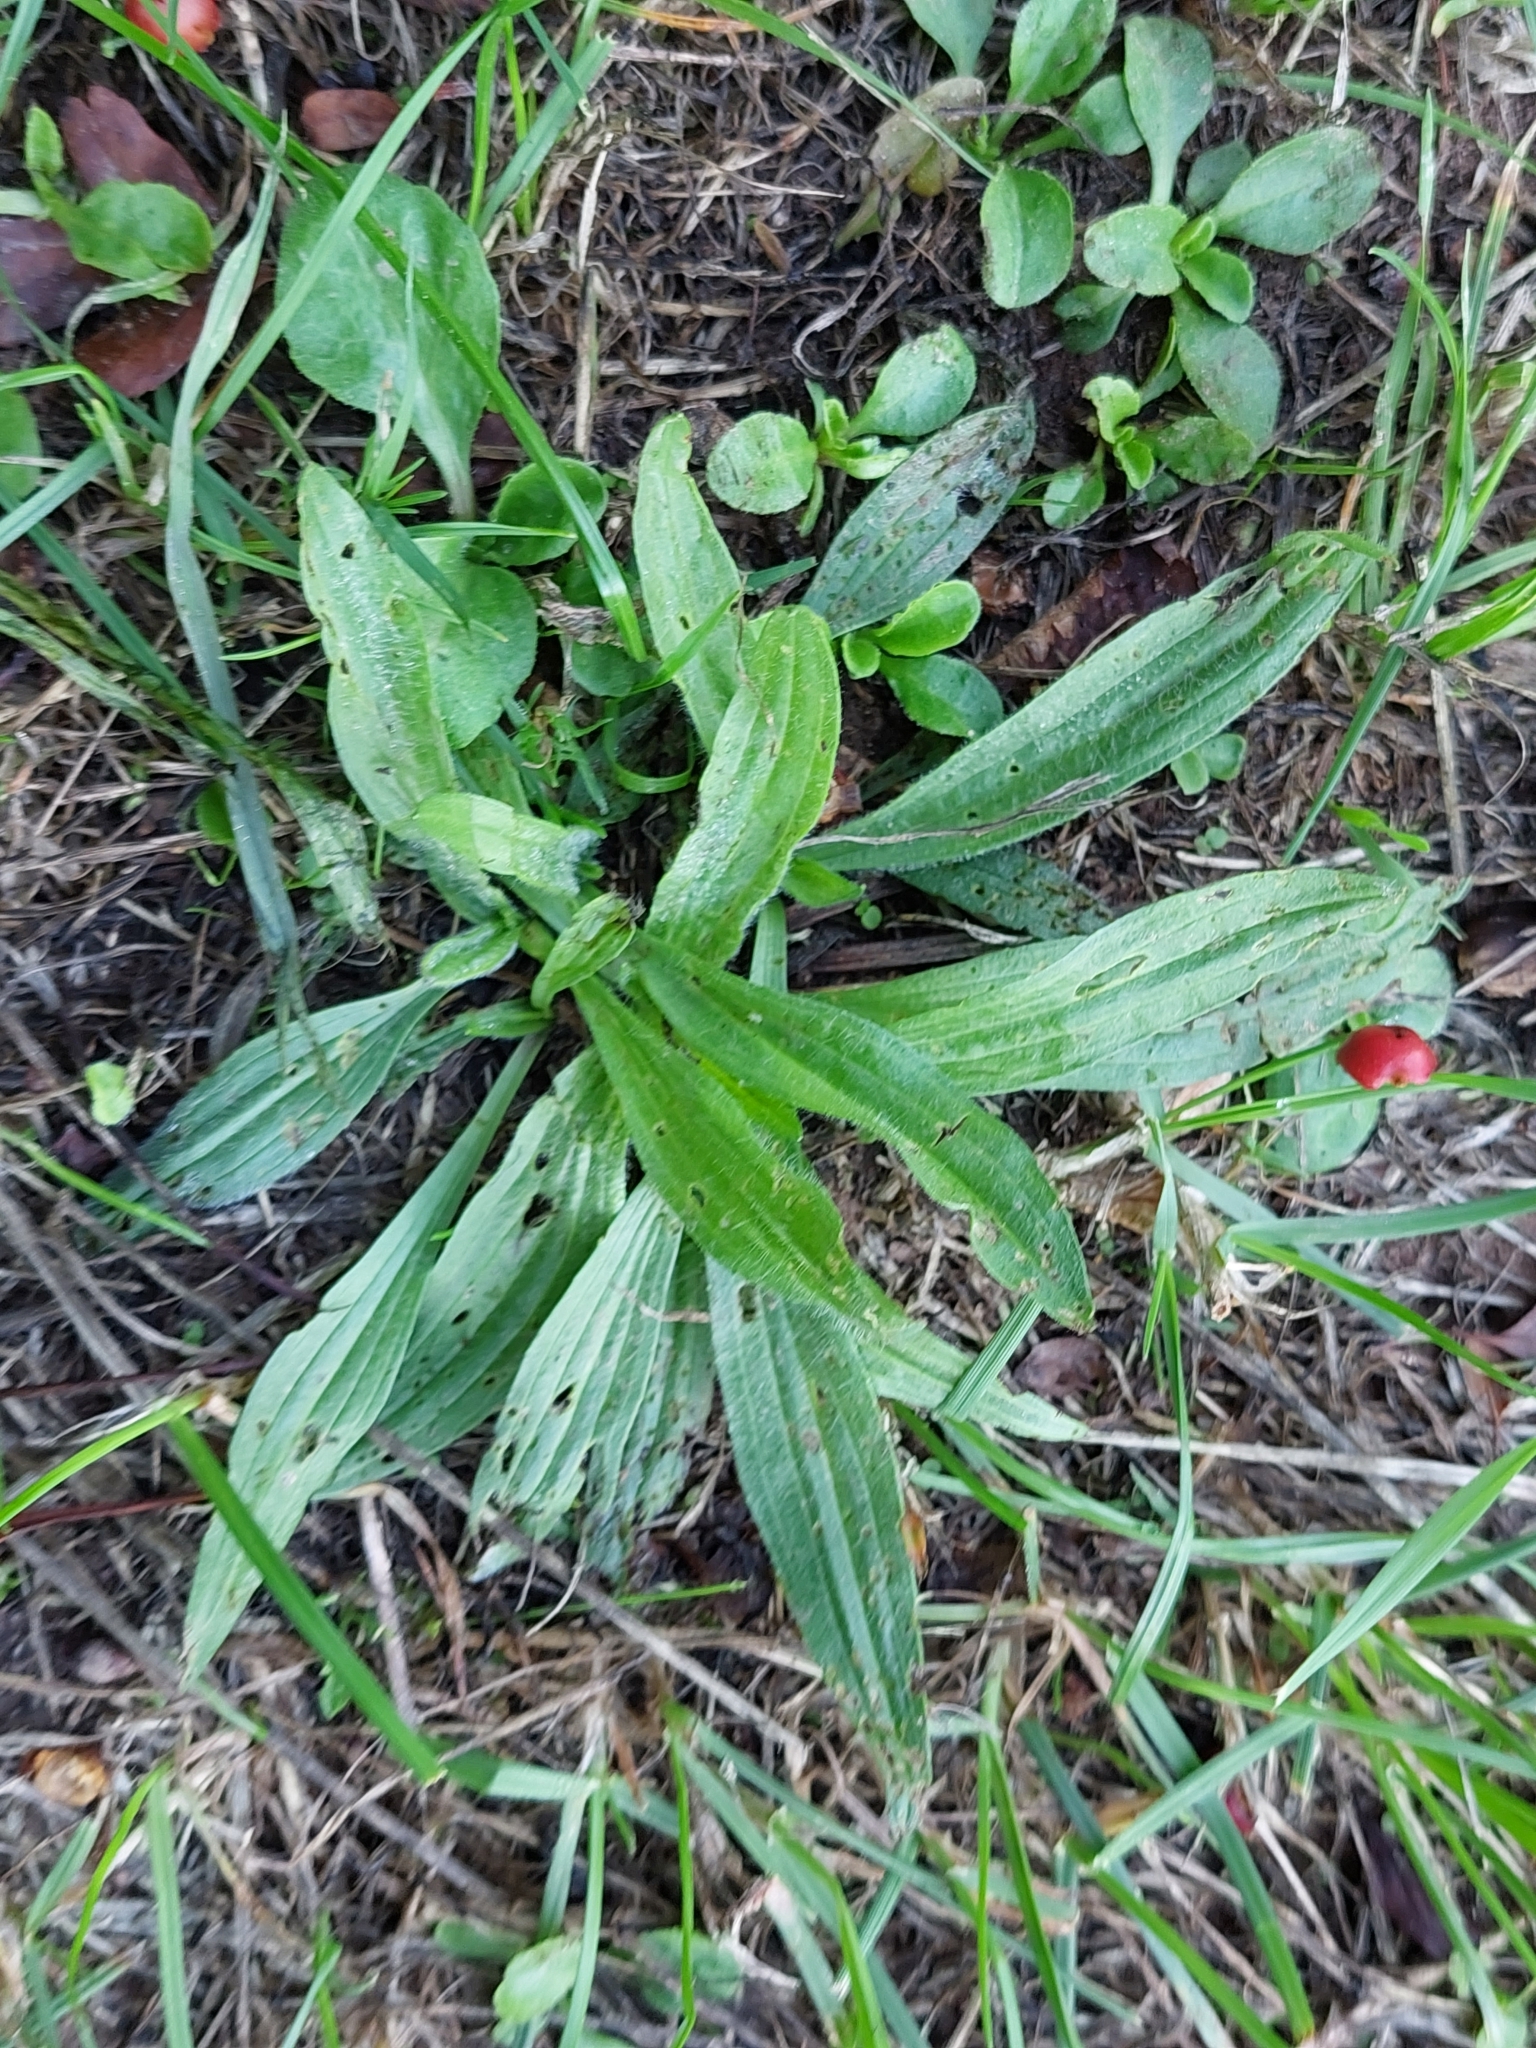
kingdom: Plantae
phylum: Tracheophyta
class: Magnoliopsida
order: Lamiales
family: Plantaginaceae
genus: Plantago
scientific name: Plantago lanceolata
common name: Ribwort plantain
